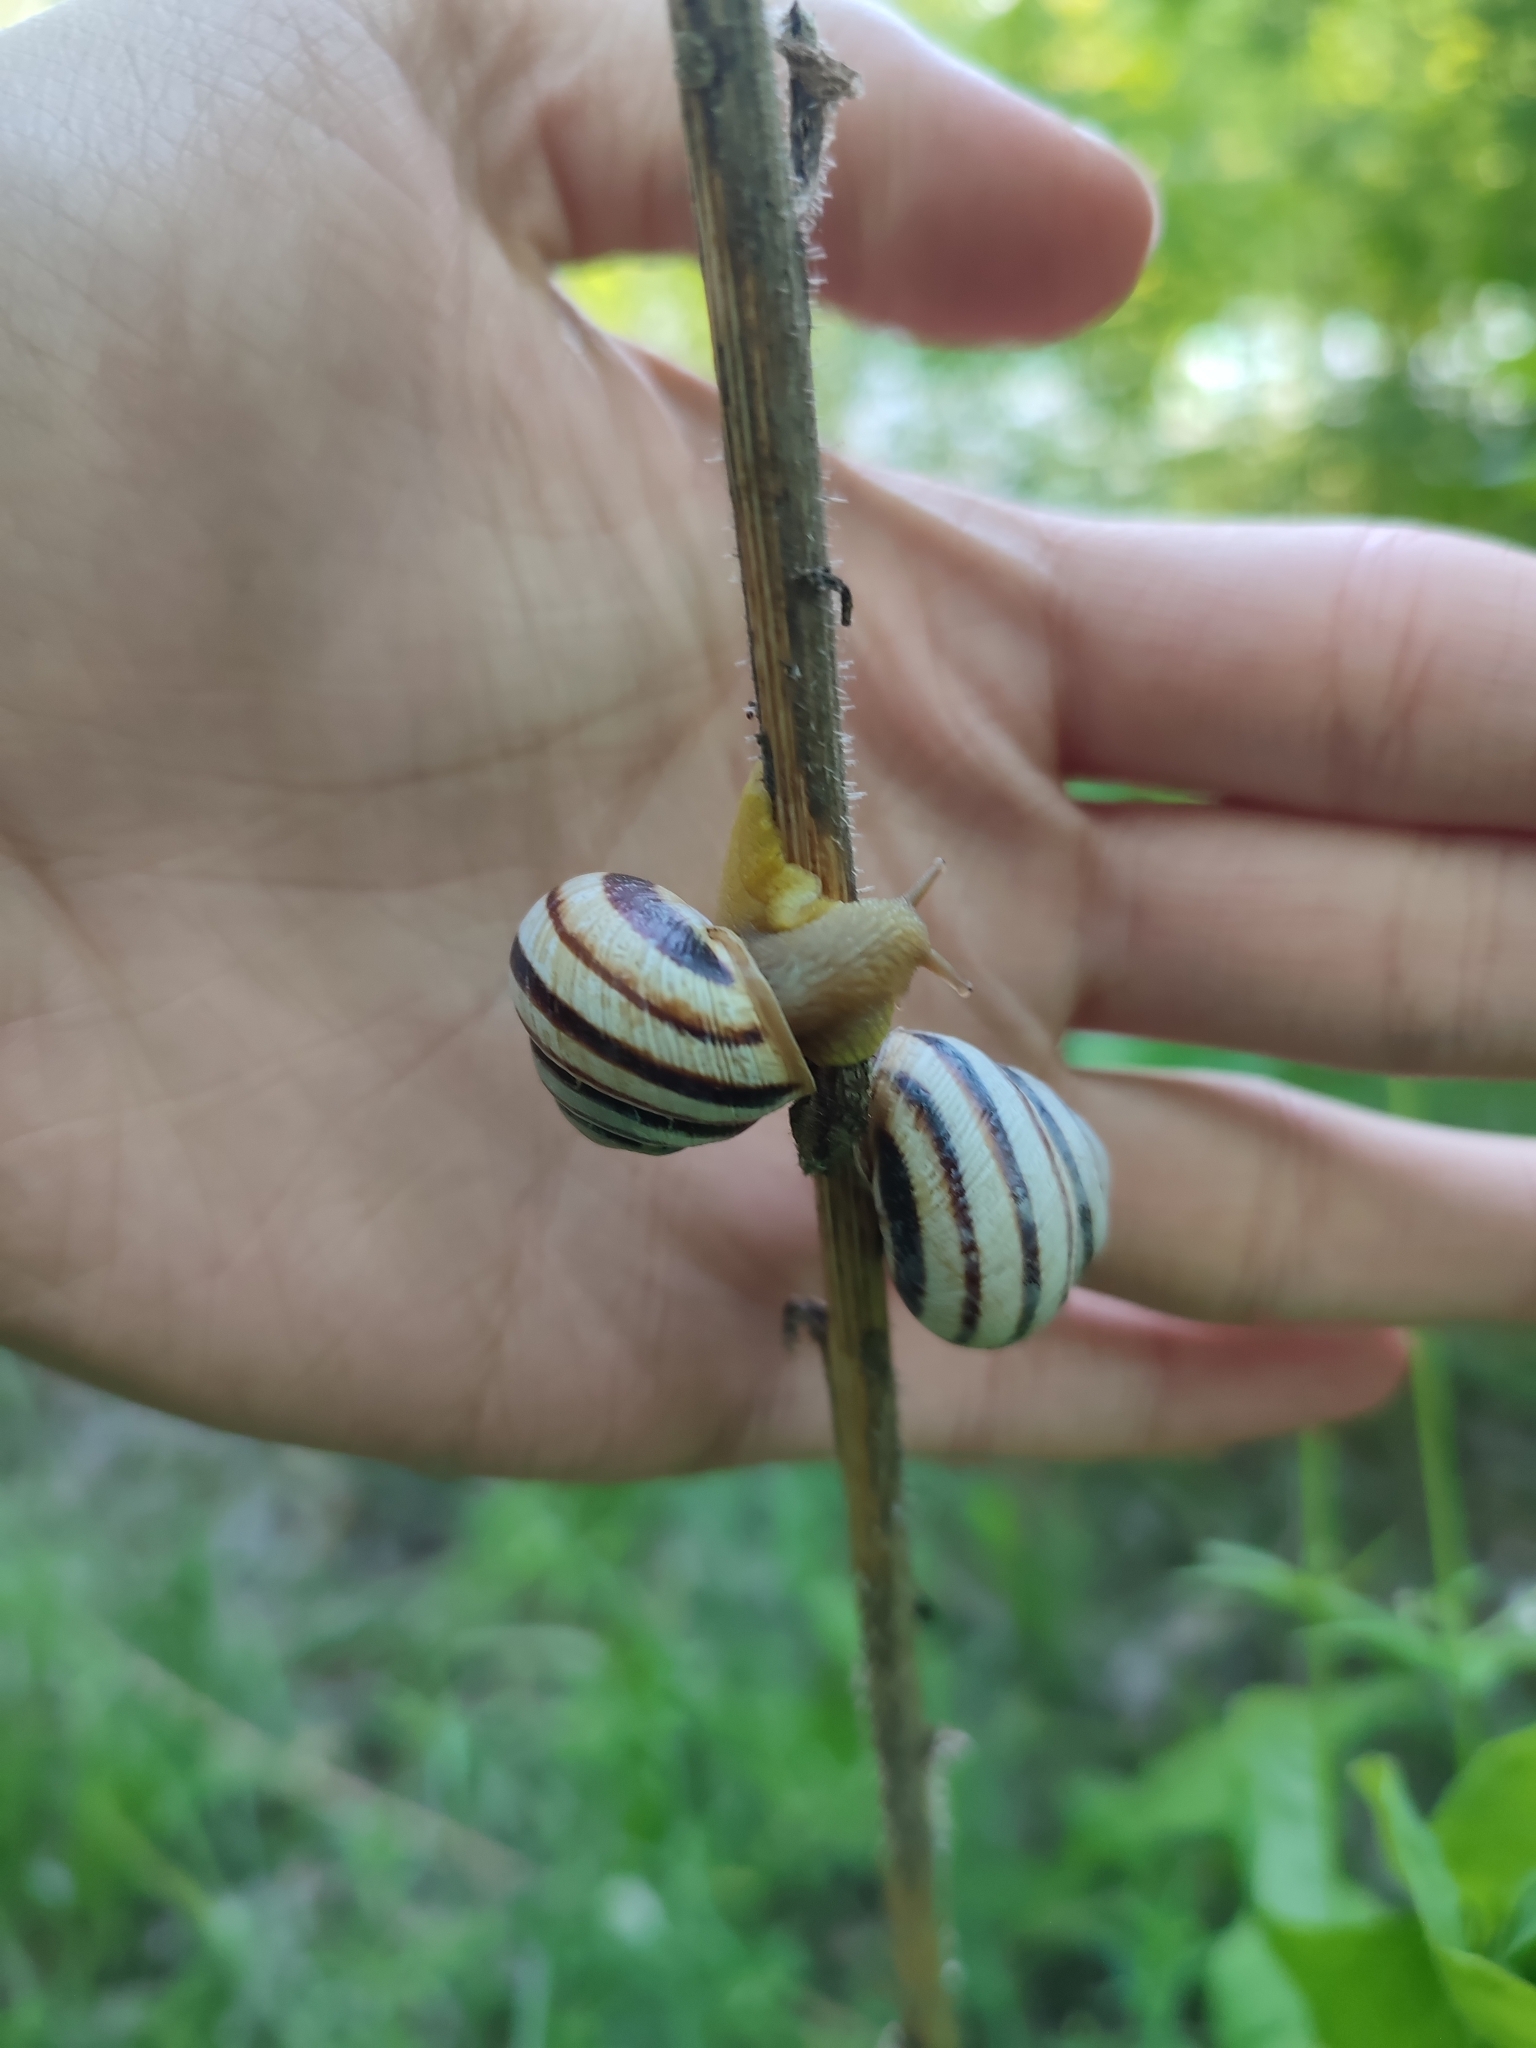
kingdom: Animalia
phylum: Mollusca
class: Gastropoda
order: Stylommatophora
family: Helicidae
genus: Caucasotachea
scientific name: Caucasotachea vindobonensis
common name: European helicid land snail
